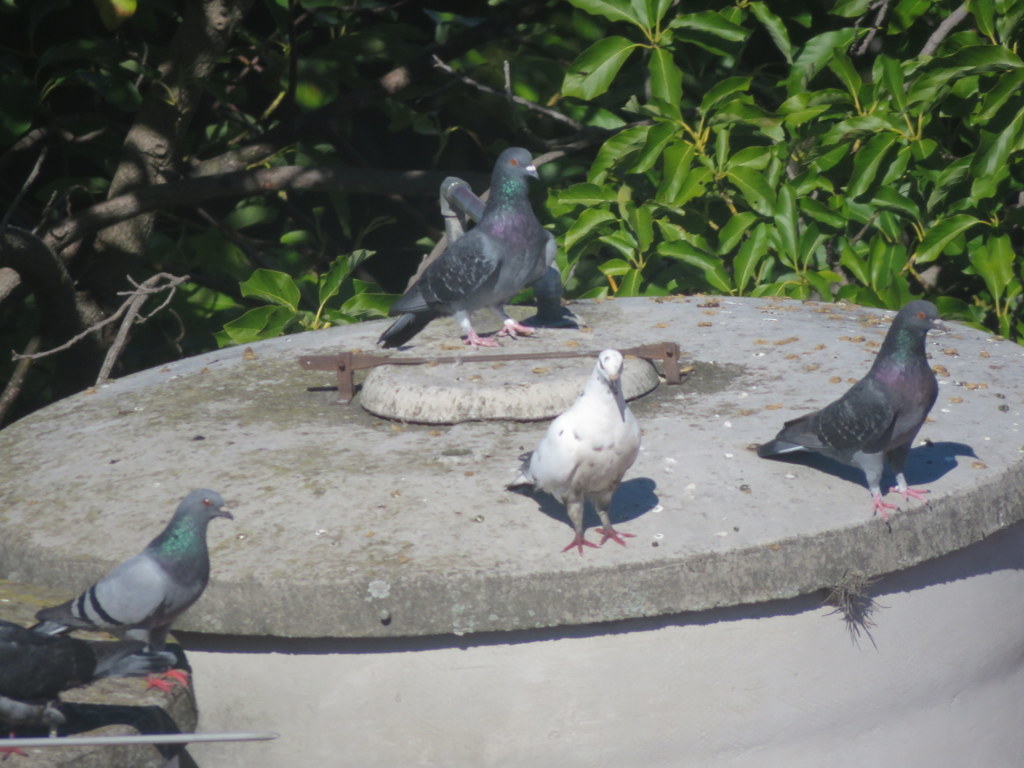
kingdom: Animalia
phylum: Chordata
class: Aves
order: Columbiformes
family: Columbidae
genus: Columba
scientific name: Columba livia
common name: Rock pigeon
